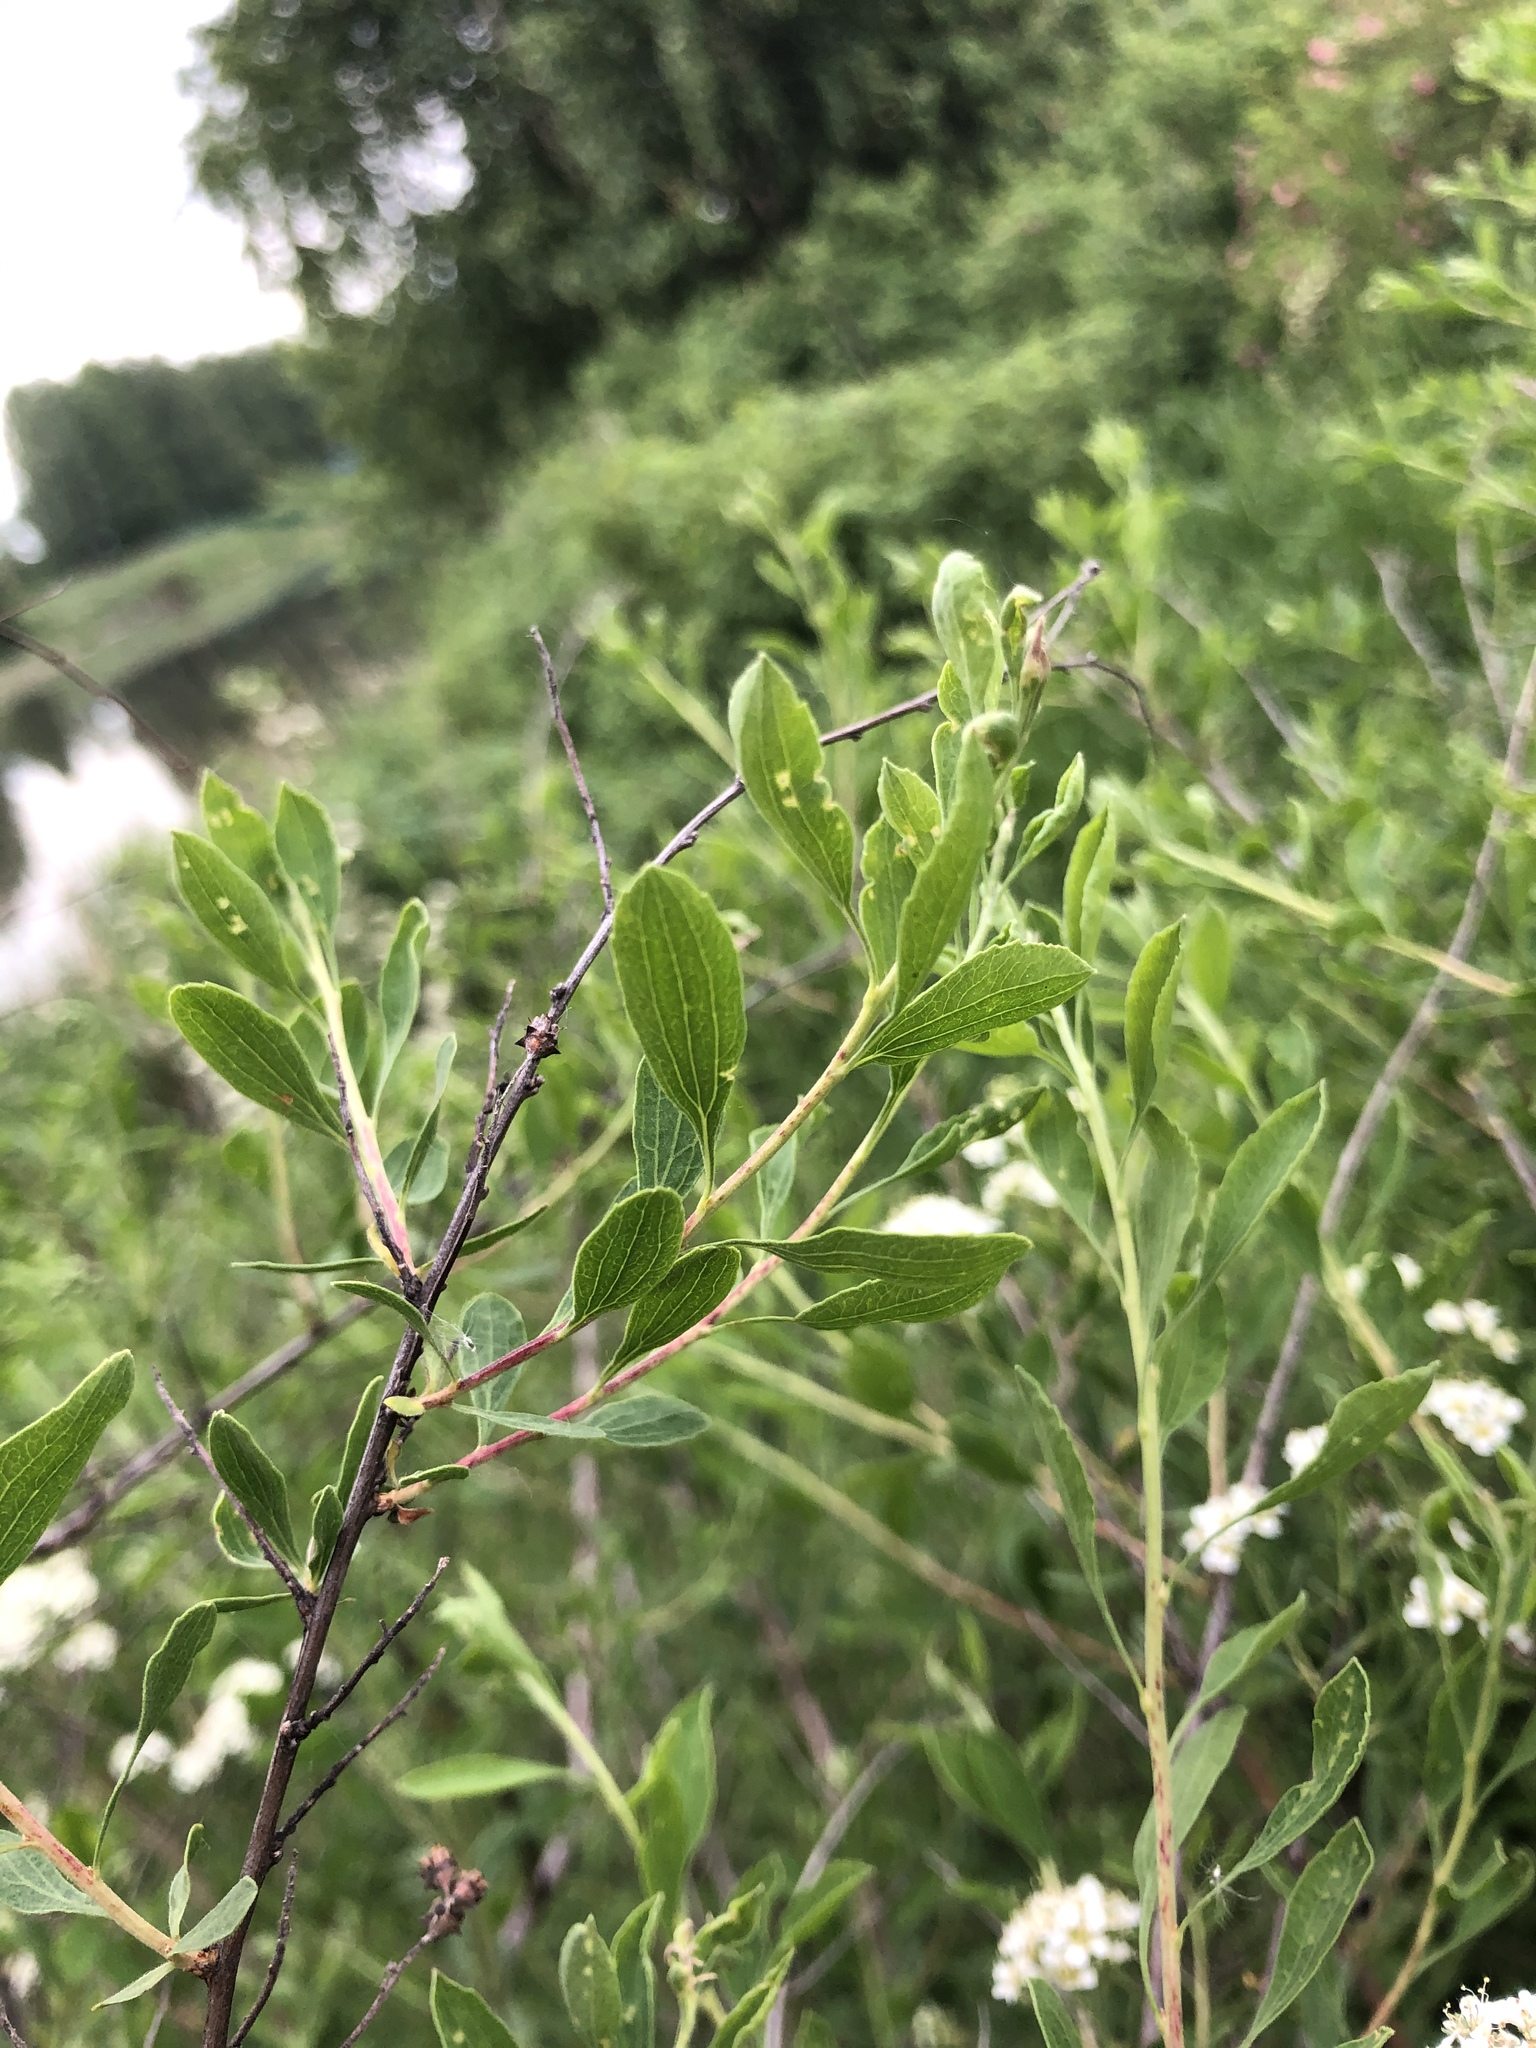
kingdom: Plantae
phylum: Tracheophyta
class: Magnoliopsida
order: Rosales
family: Rosaceae
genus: Spiraea
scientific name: Spiraea crenata
